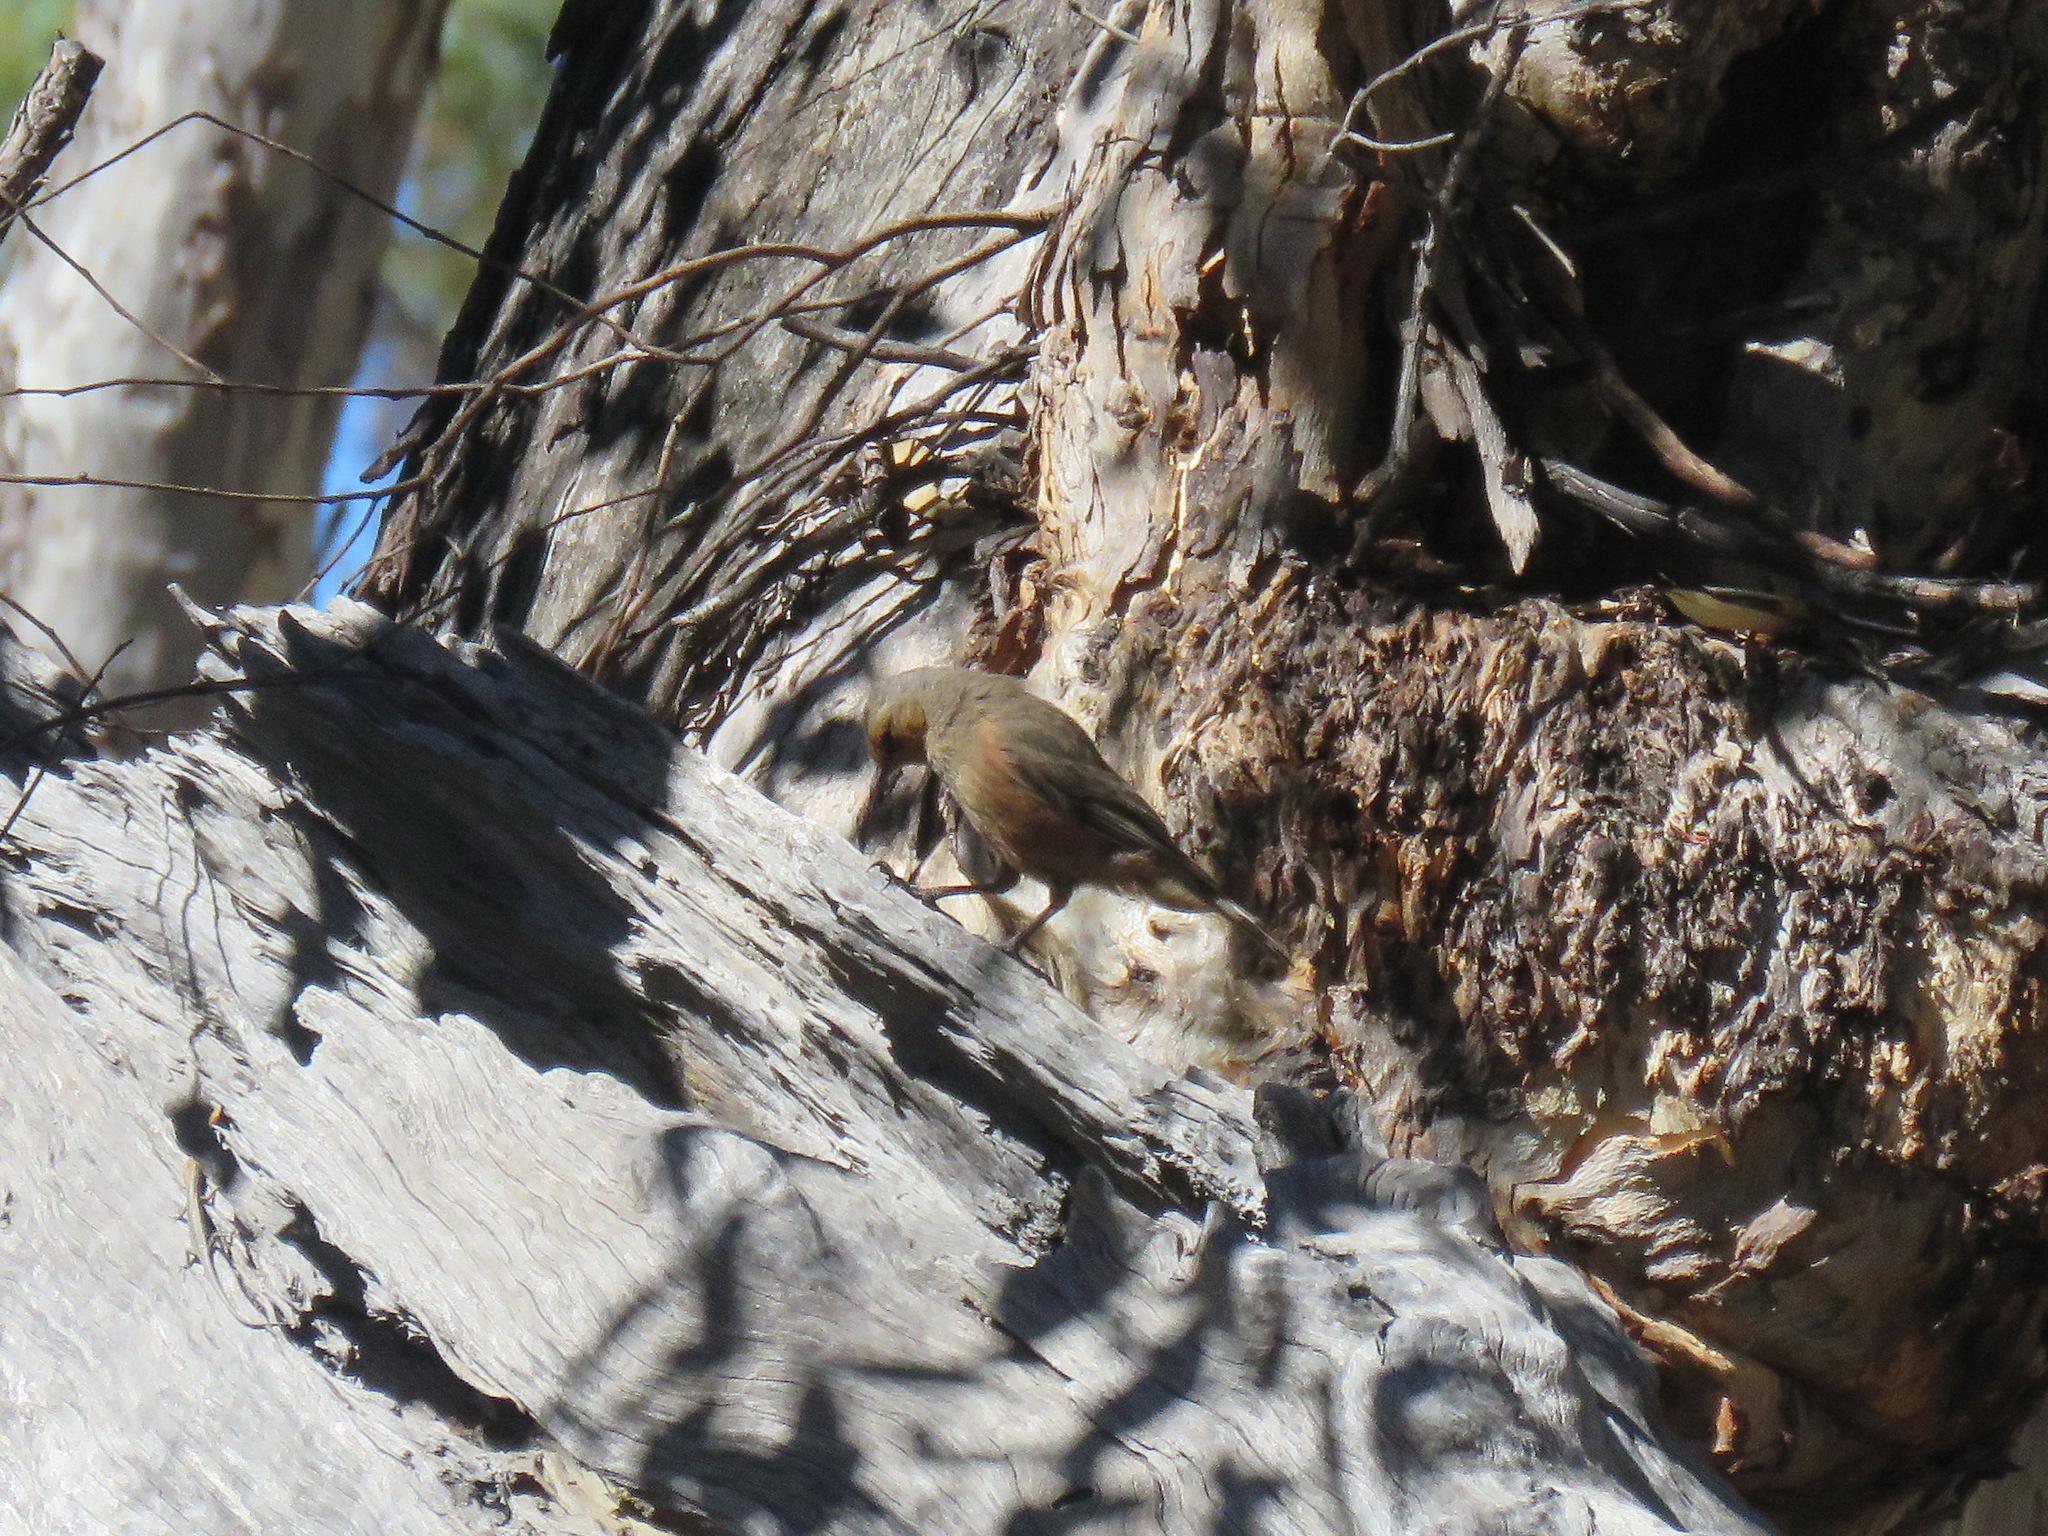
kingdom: Animalia
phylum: Chordata
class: Aves
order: Passeriformes
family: Climacteridae
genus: Climacteris
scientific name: Climacteris rufus
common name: Rufous treecreeper
